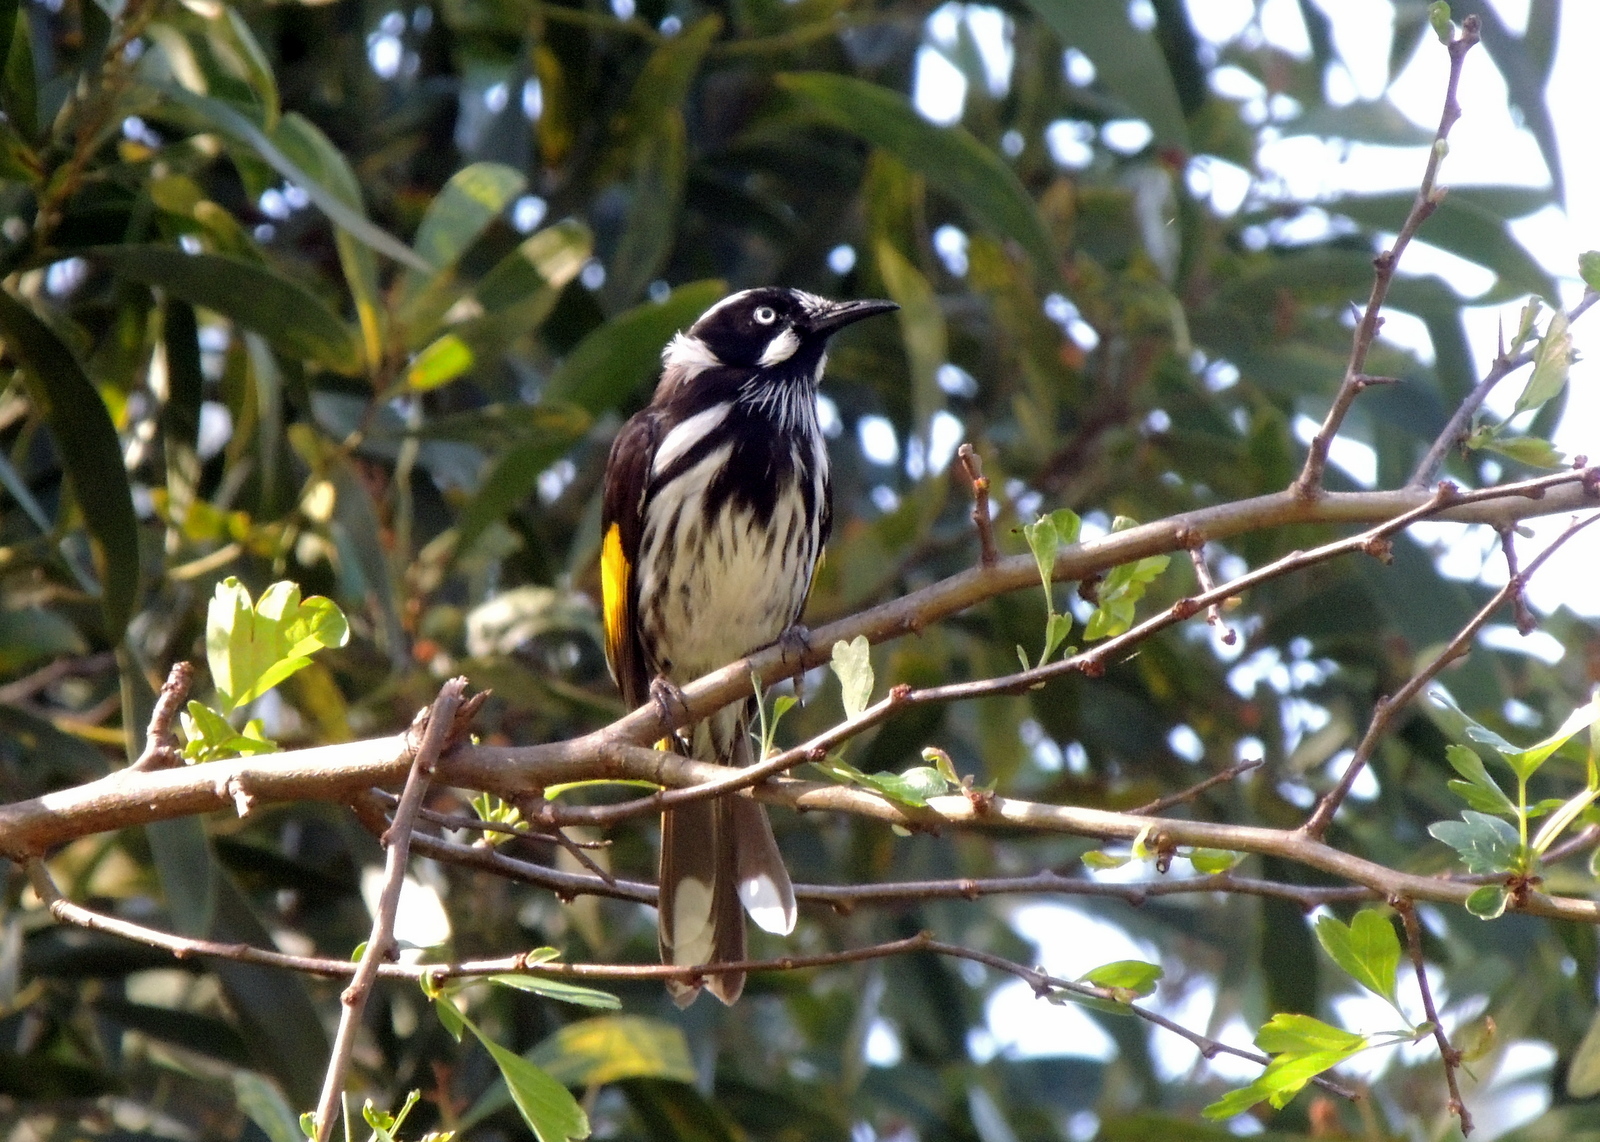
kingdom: Animalia
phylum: Chordata
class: Aves
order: Passeriformes
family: Meliphagidae
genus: Phylidonyris
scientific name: Phylidonyris novaehollandiae
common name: New holland honeyeater
